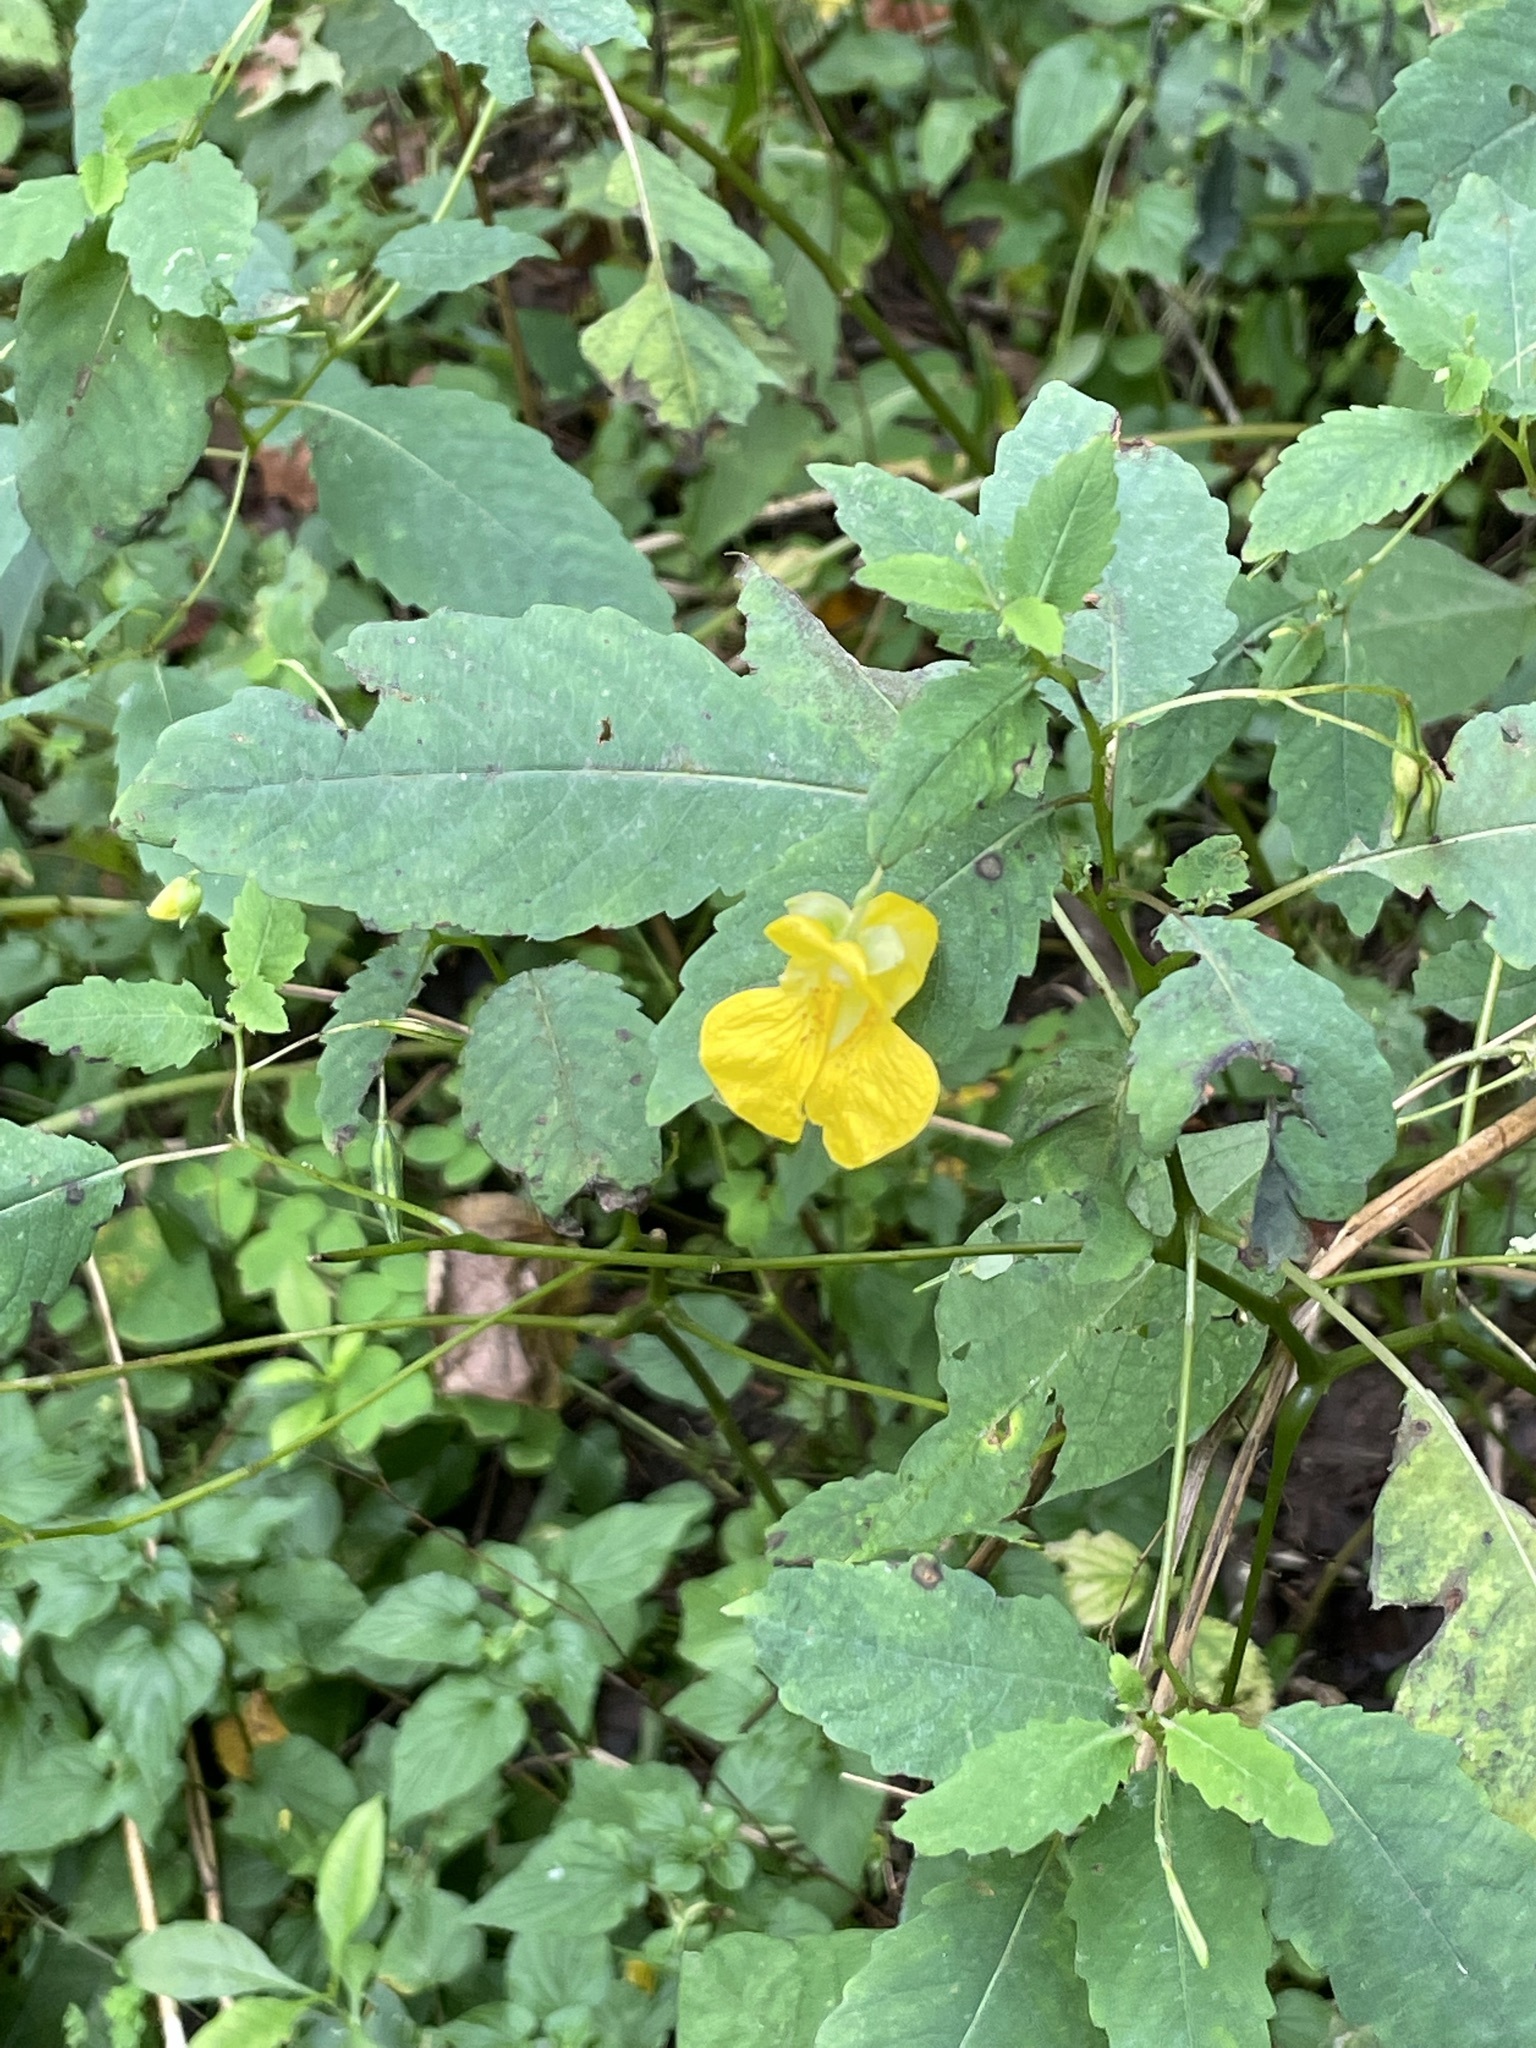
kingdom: Plantae
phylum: Tracheophyta
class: Magnoliopsida
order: Ericales
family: Balsaminaceae
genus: Impatiens
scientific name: Impatiens pallida
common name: Pale snapweed
